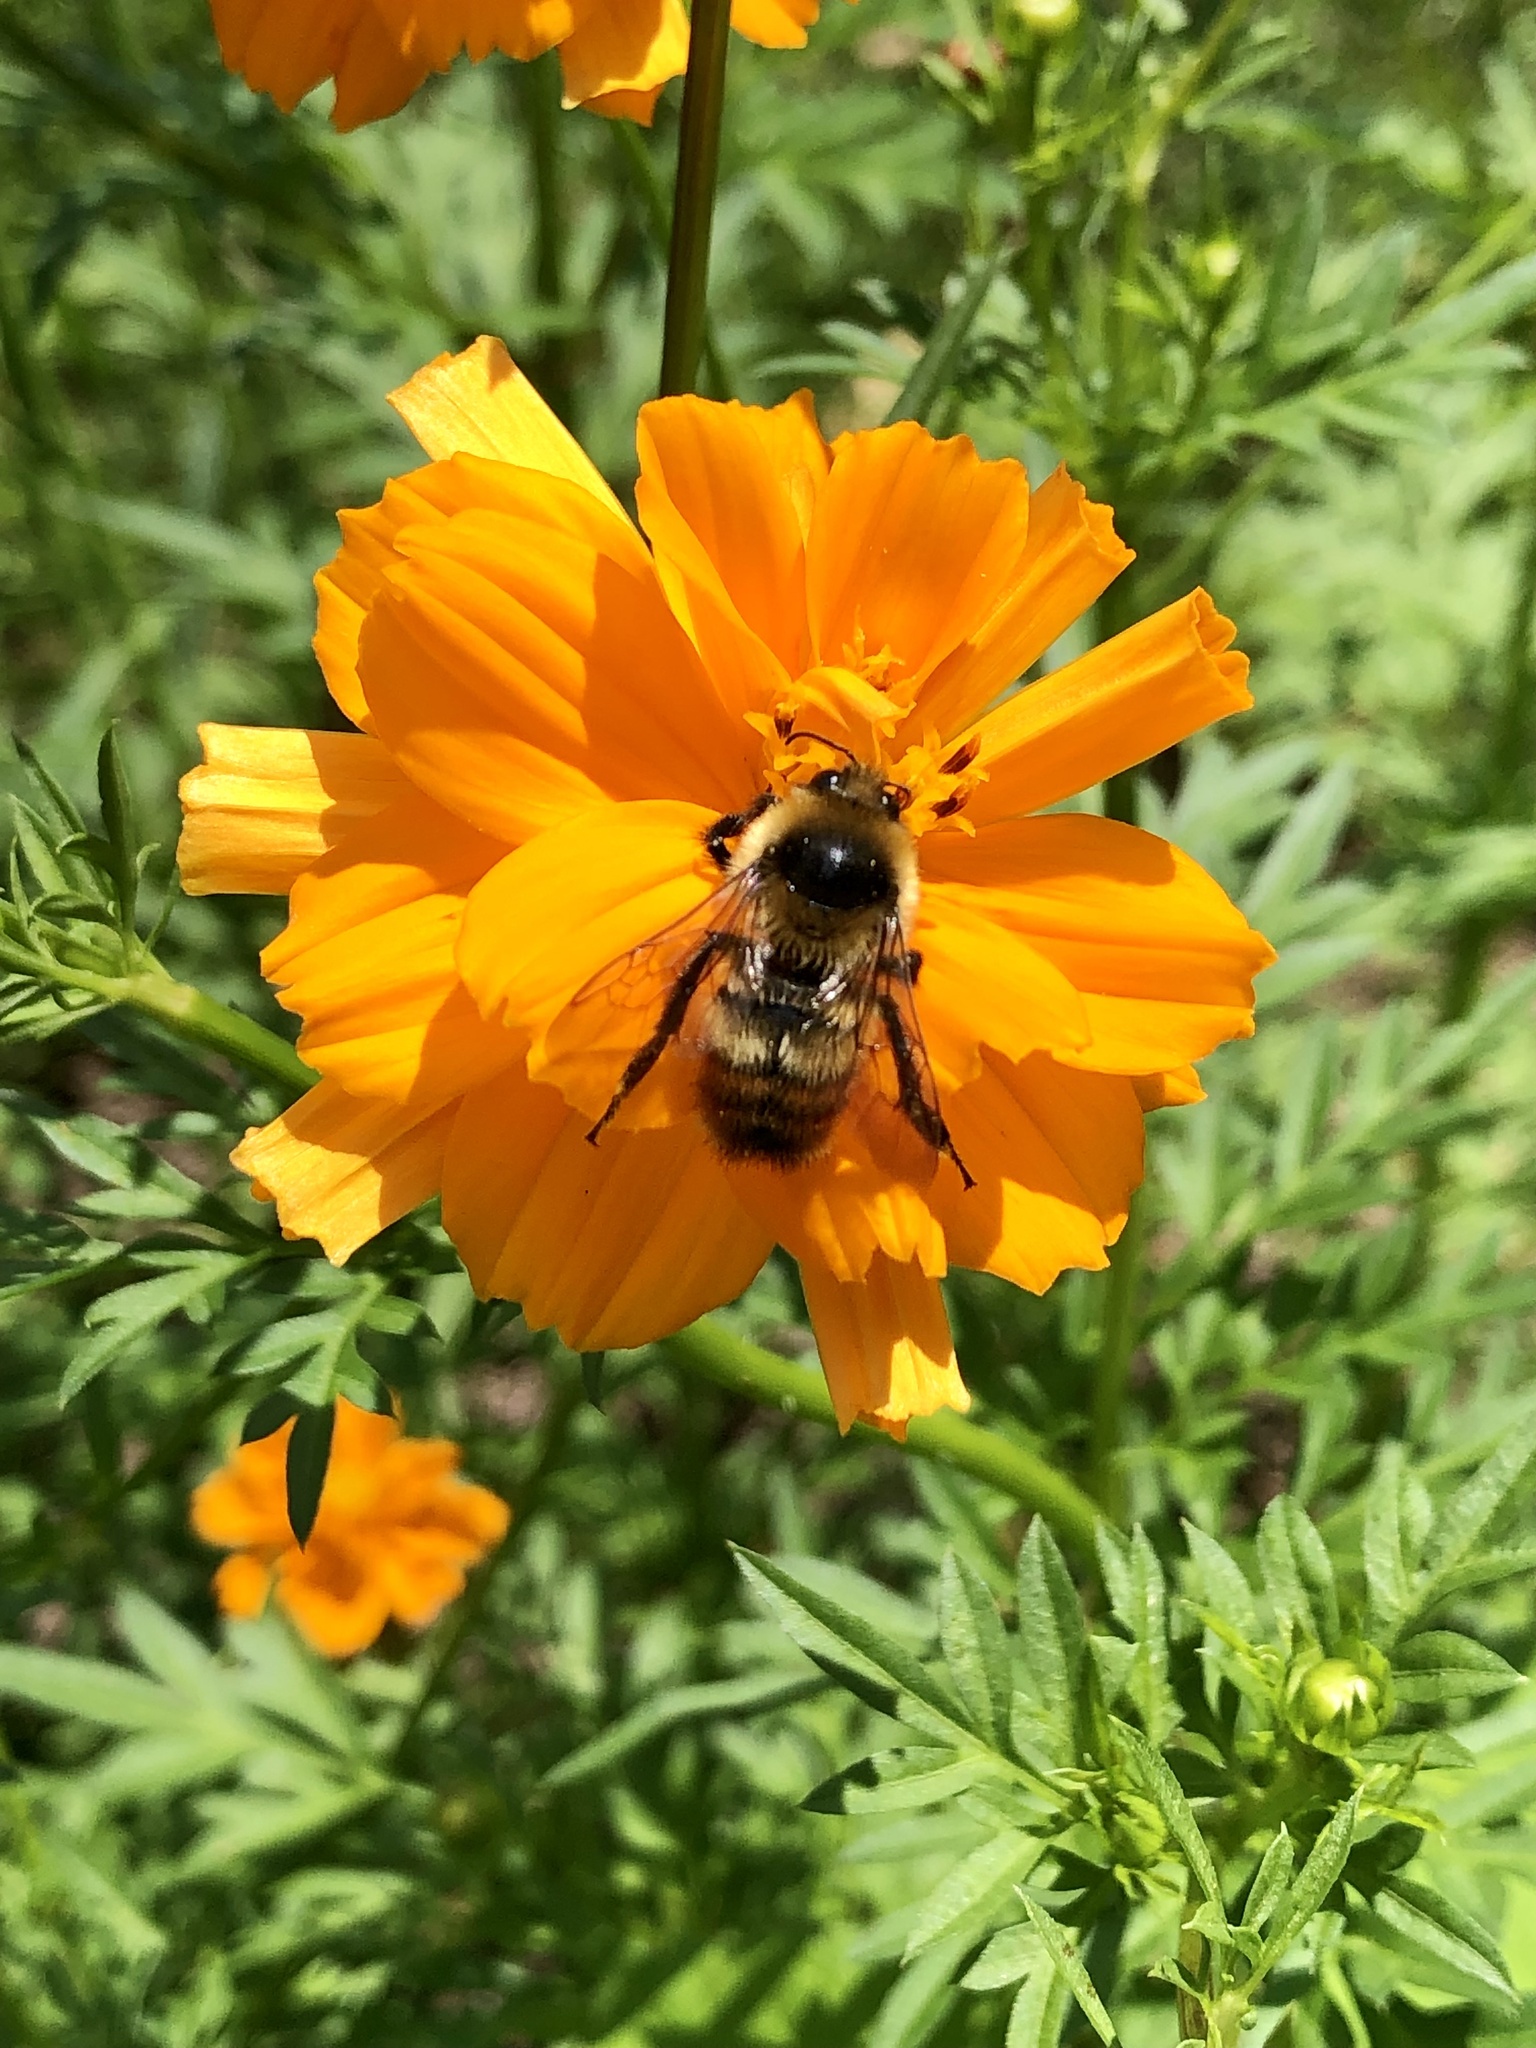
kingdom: Animalia
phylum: Arthropoda
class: Insecta
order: Hymenoptera
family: Apidae
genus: Bombus
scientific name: Bombus rufocinctus
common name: Red-belted bumble bee
